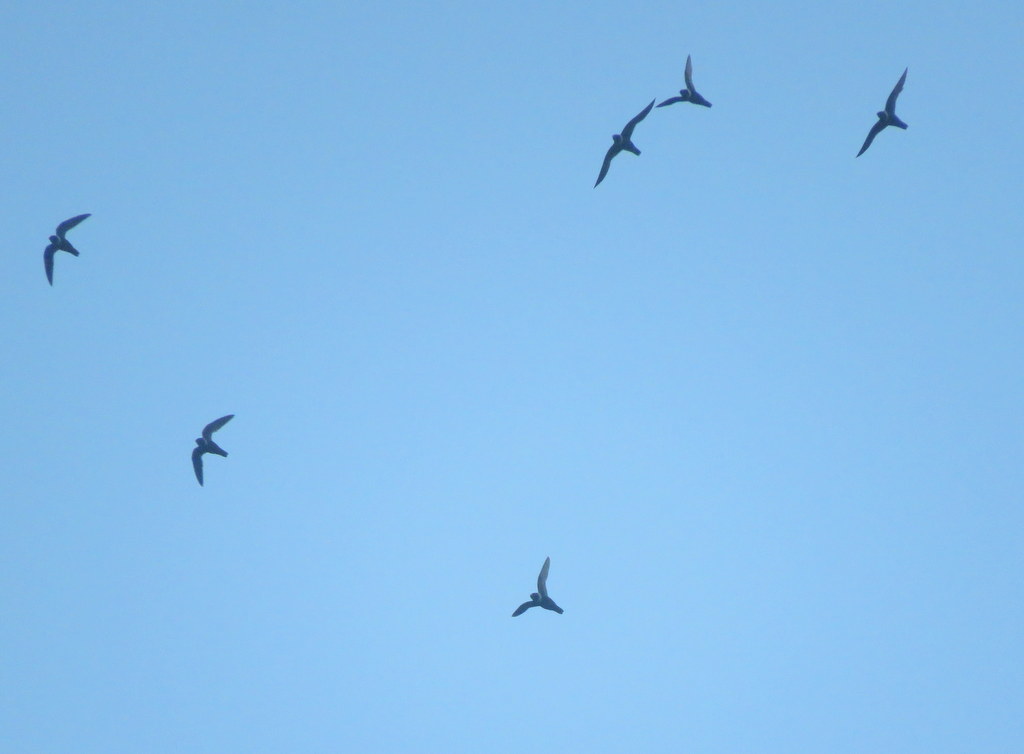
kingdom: Animalia
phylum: Chordata
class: Aves
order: Apodiformes
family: Apodidae
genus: Streptoprocne
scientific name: Streptoprocne zonaris
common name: White-collared swift
